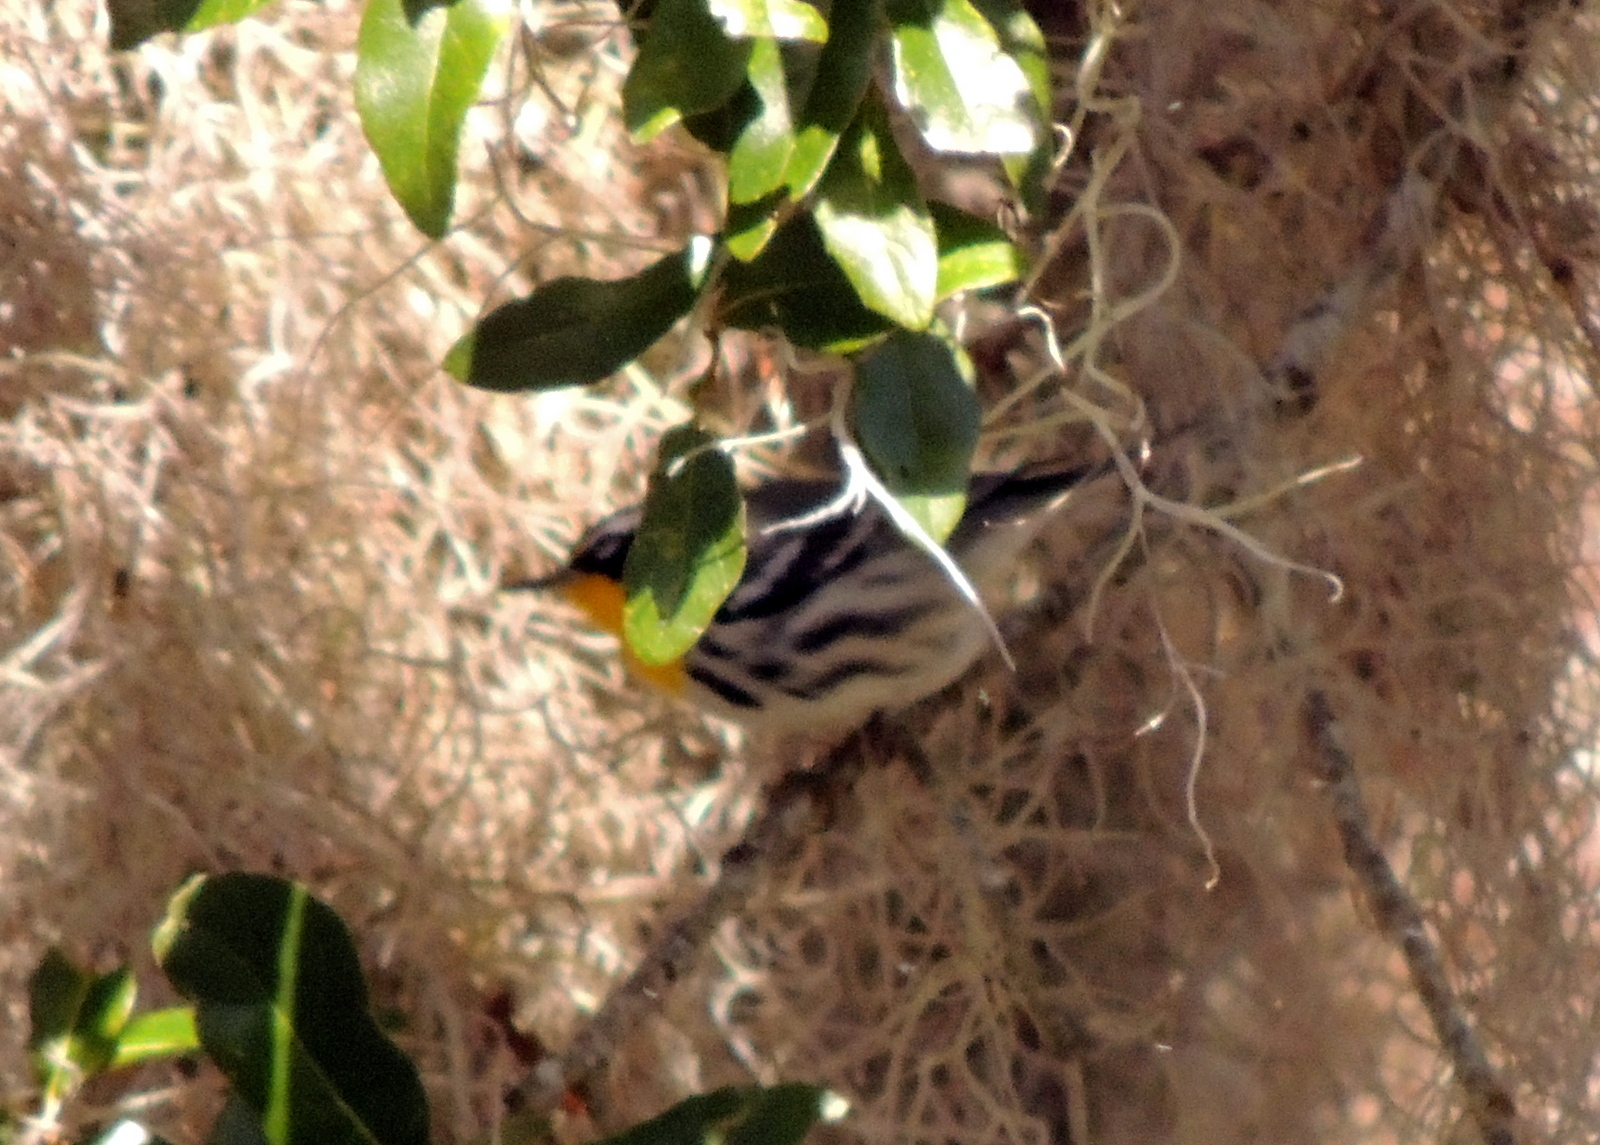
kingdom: Animalia
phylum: Chordata
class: Aves
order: Passeriformes
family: Parulidae
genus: Setophaga
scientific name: Setophaga dominica
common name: Yellow-throated warbler
